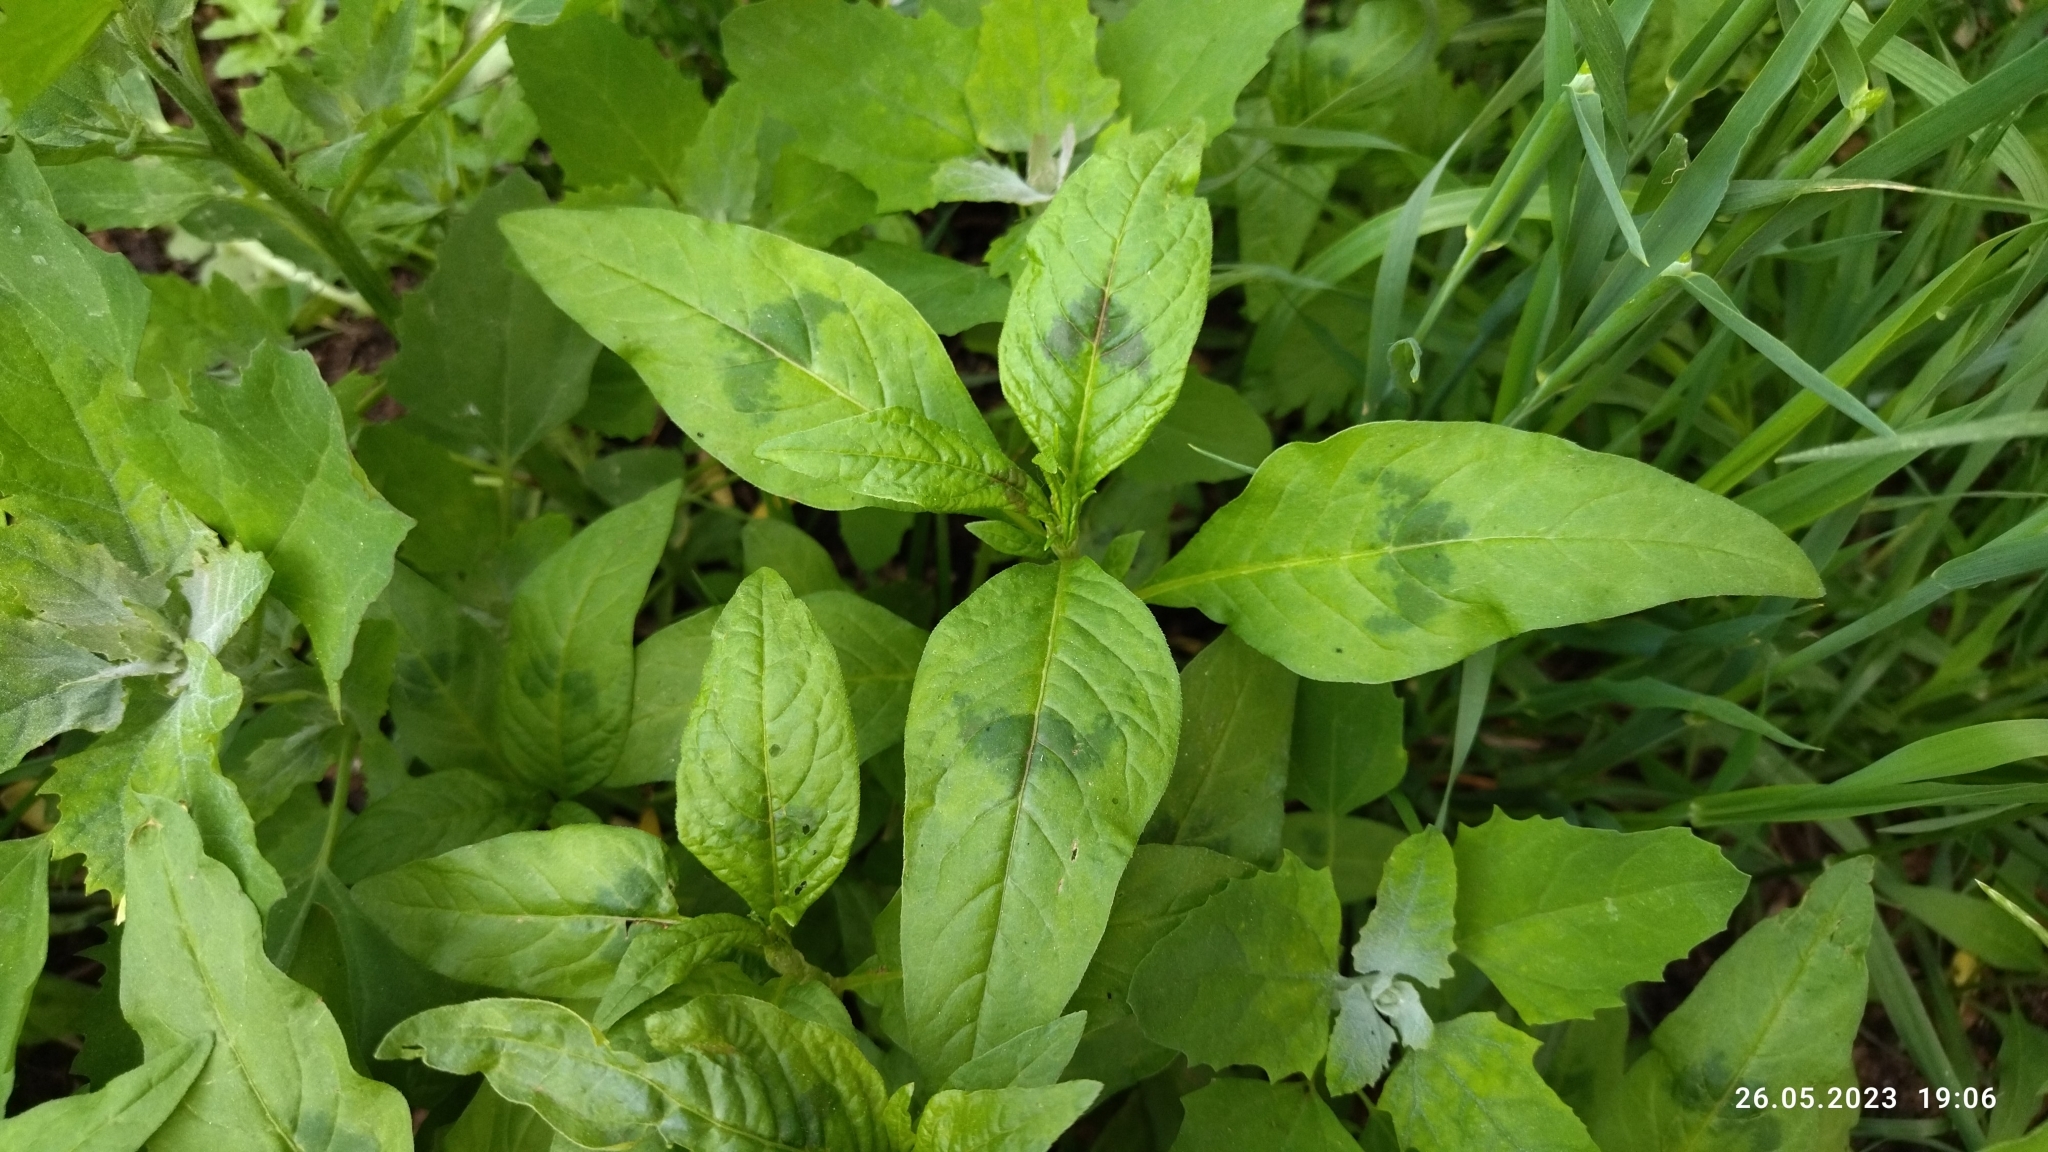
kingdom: Plantae
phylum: Tracheophyta
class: Magnoliopsida
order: Caryophyllales
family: Polygonaceae
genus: Persicaria
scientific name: Persicaria maculosa
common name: Redshank
